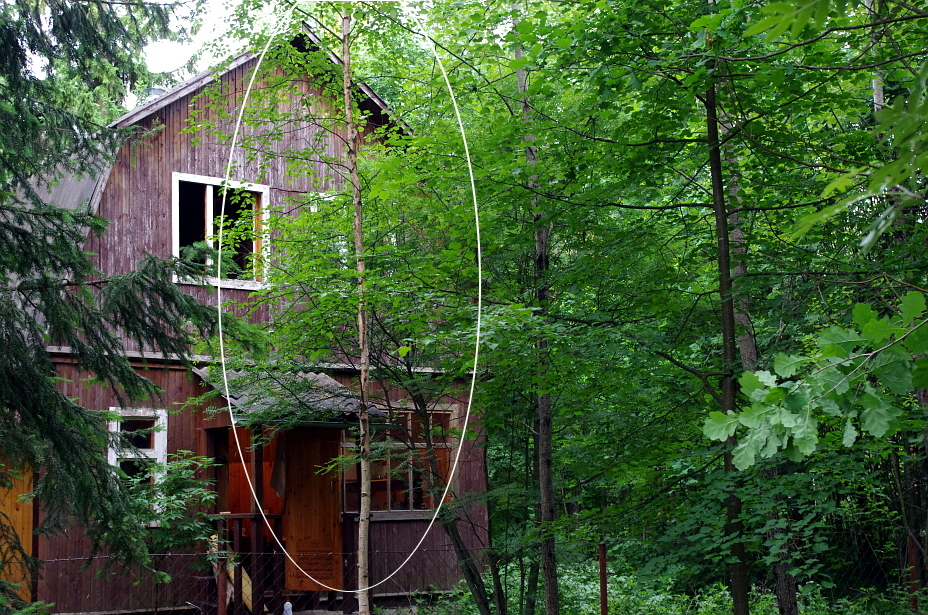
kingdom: Plantae
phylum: Tracheophyta
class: Magnoliopsida
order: Fagales
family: Betulaceae
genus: Betula
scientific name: Betula
